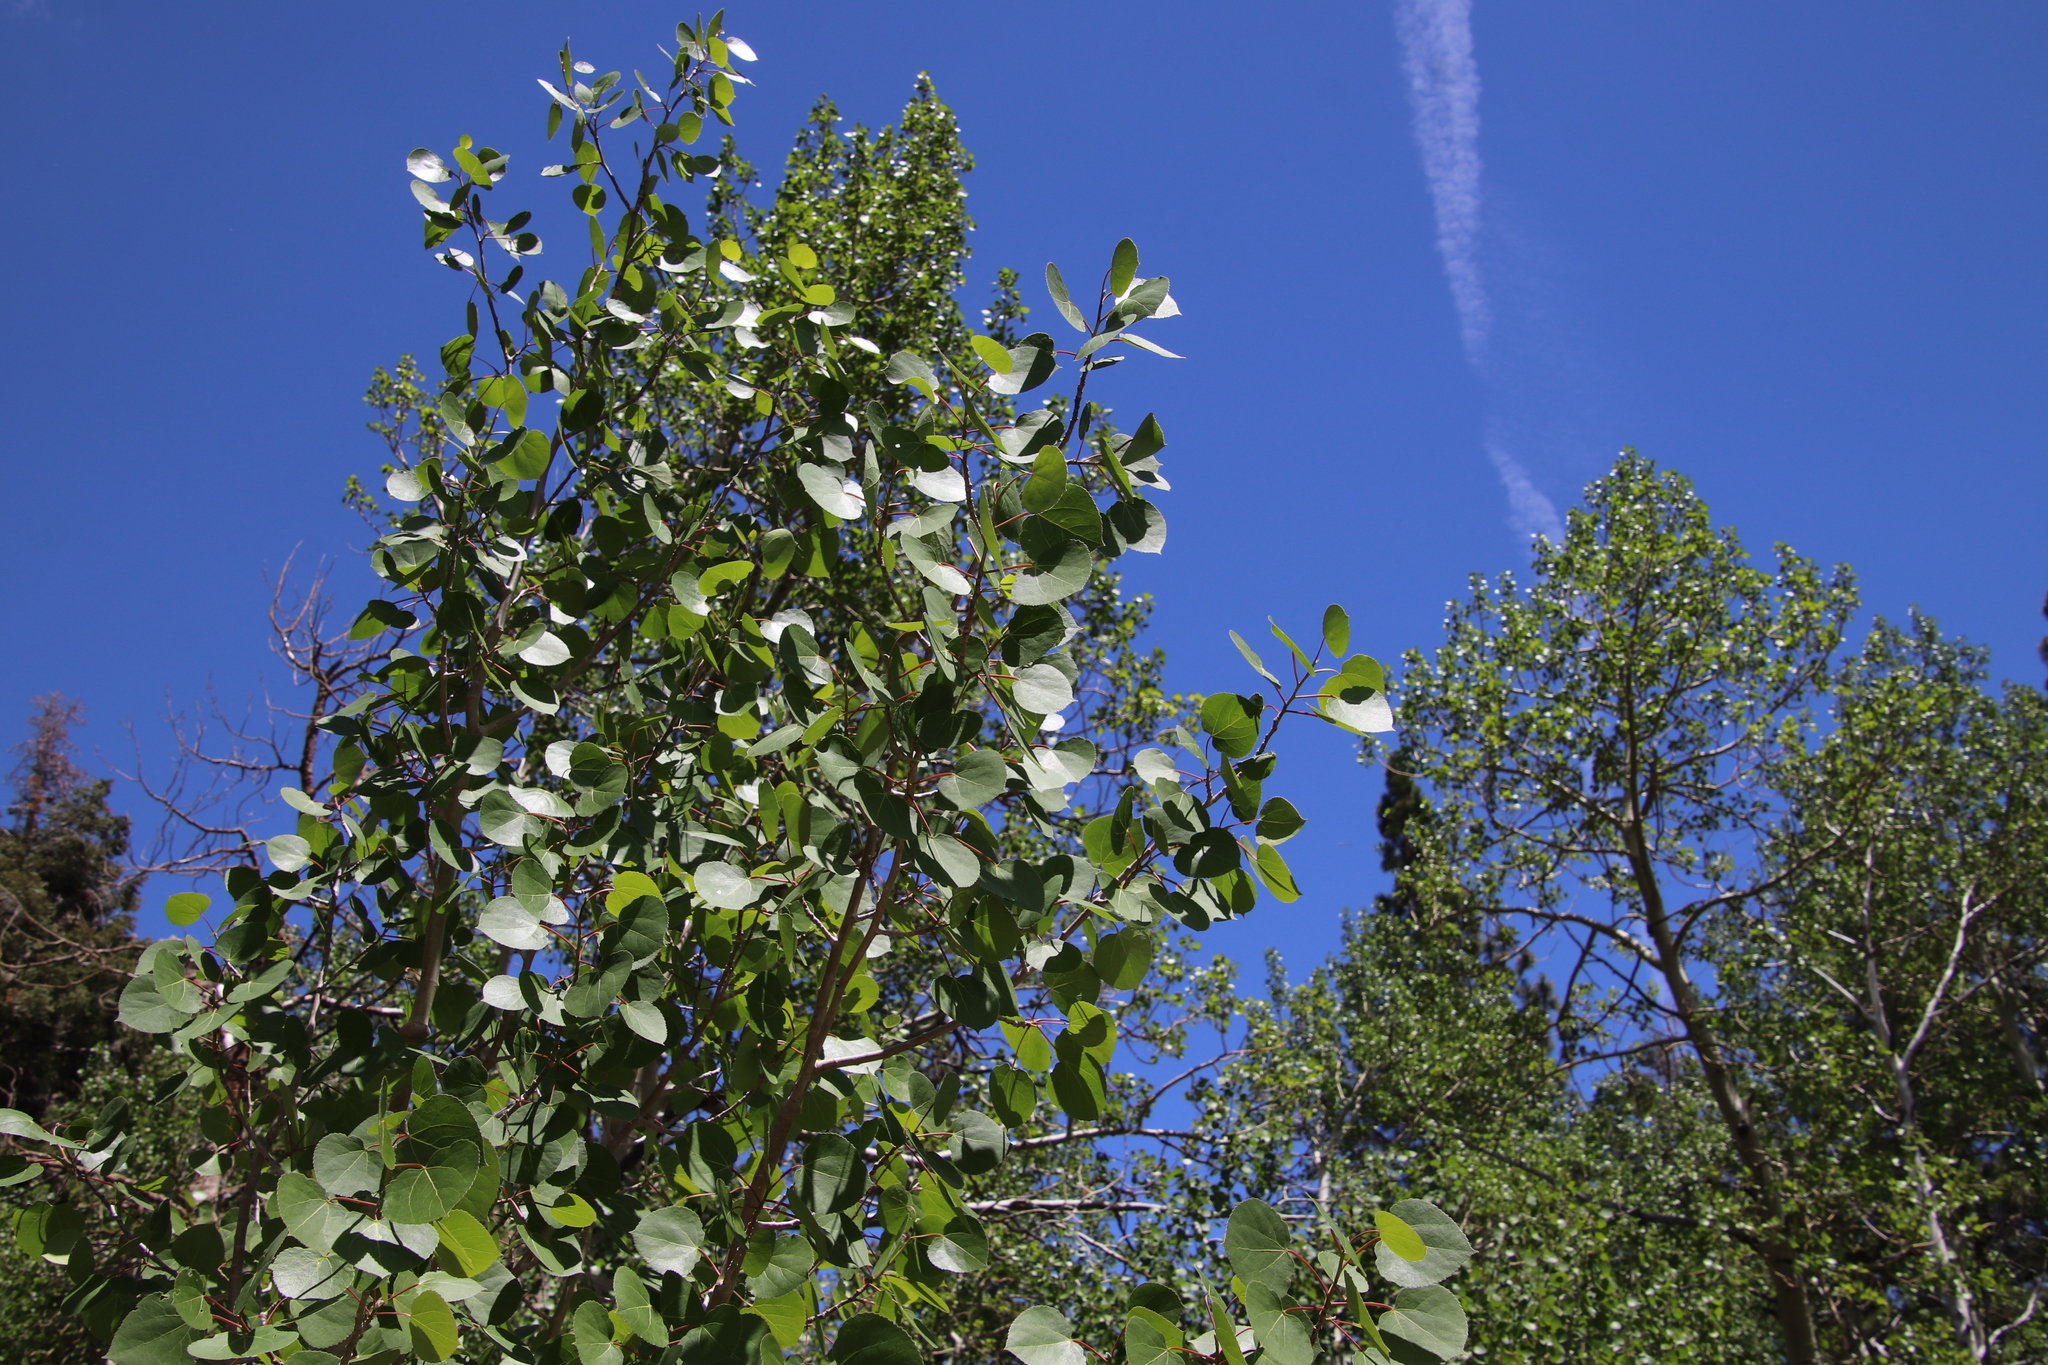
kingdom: Plantae
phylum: Tracheophyta
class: Magnoliopsida
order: Malpighiales
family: Salicaceae
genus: Populus
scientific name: Populus tremuloides
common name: Quaking aspen
